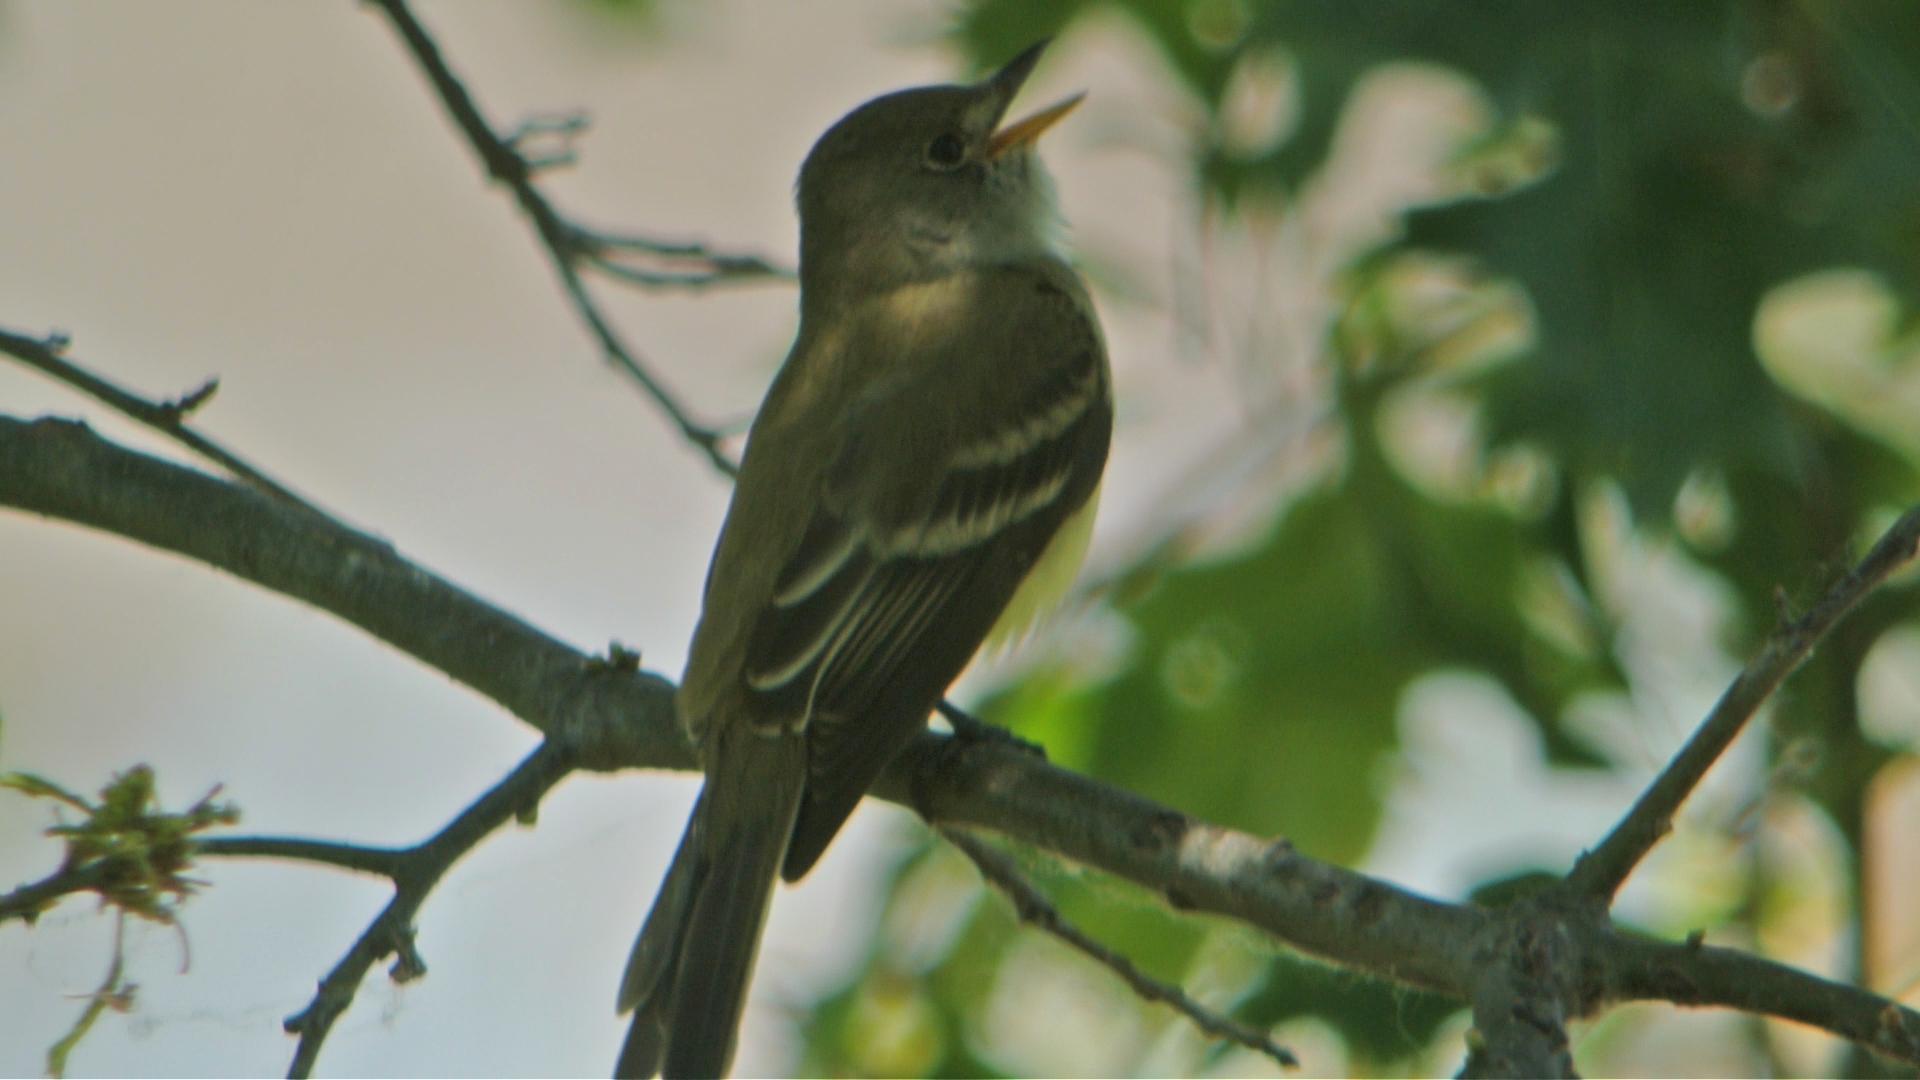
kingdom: Animalia
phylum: Chordata
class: Aves
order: Passeriformes
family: Tyrannidae
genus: Empidonax
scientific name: Empidonax traillii
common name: Willow flycatcher
